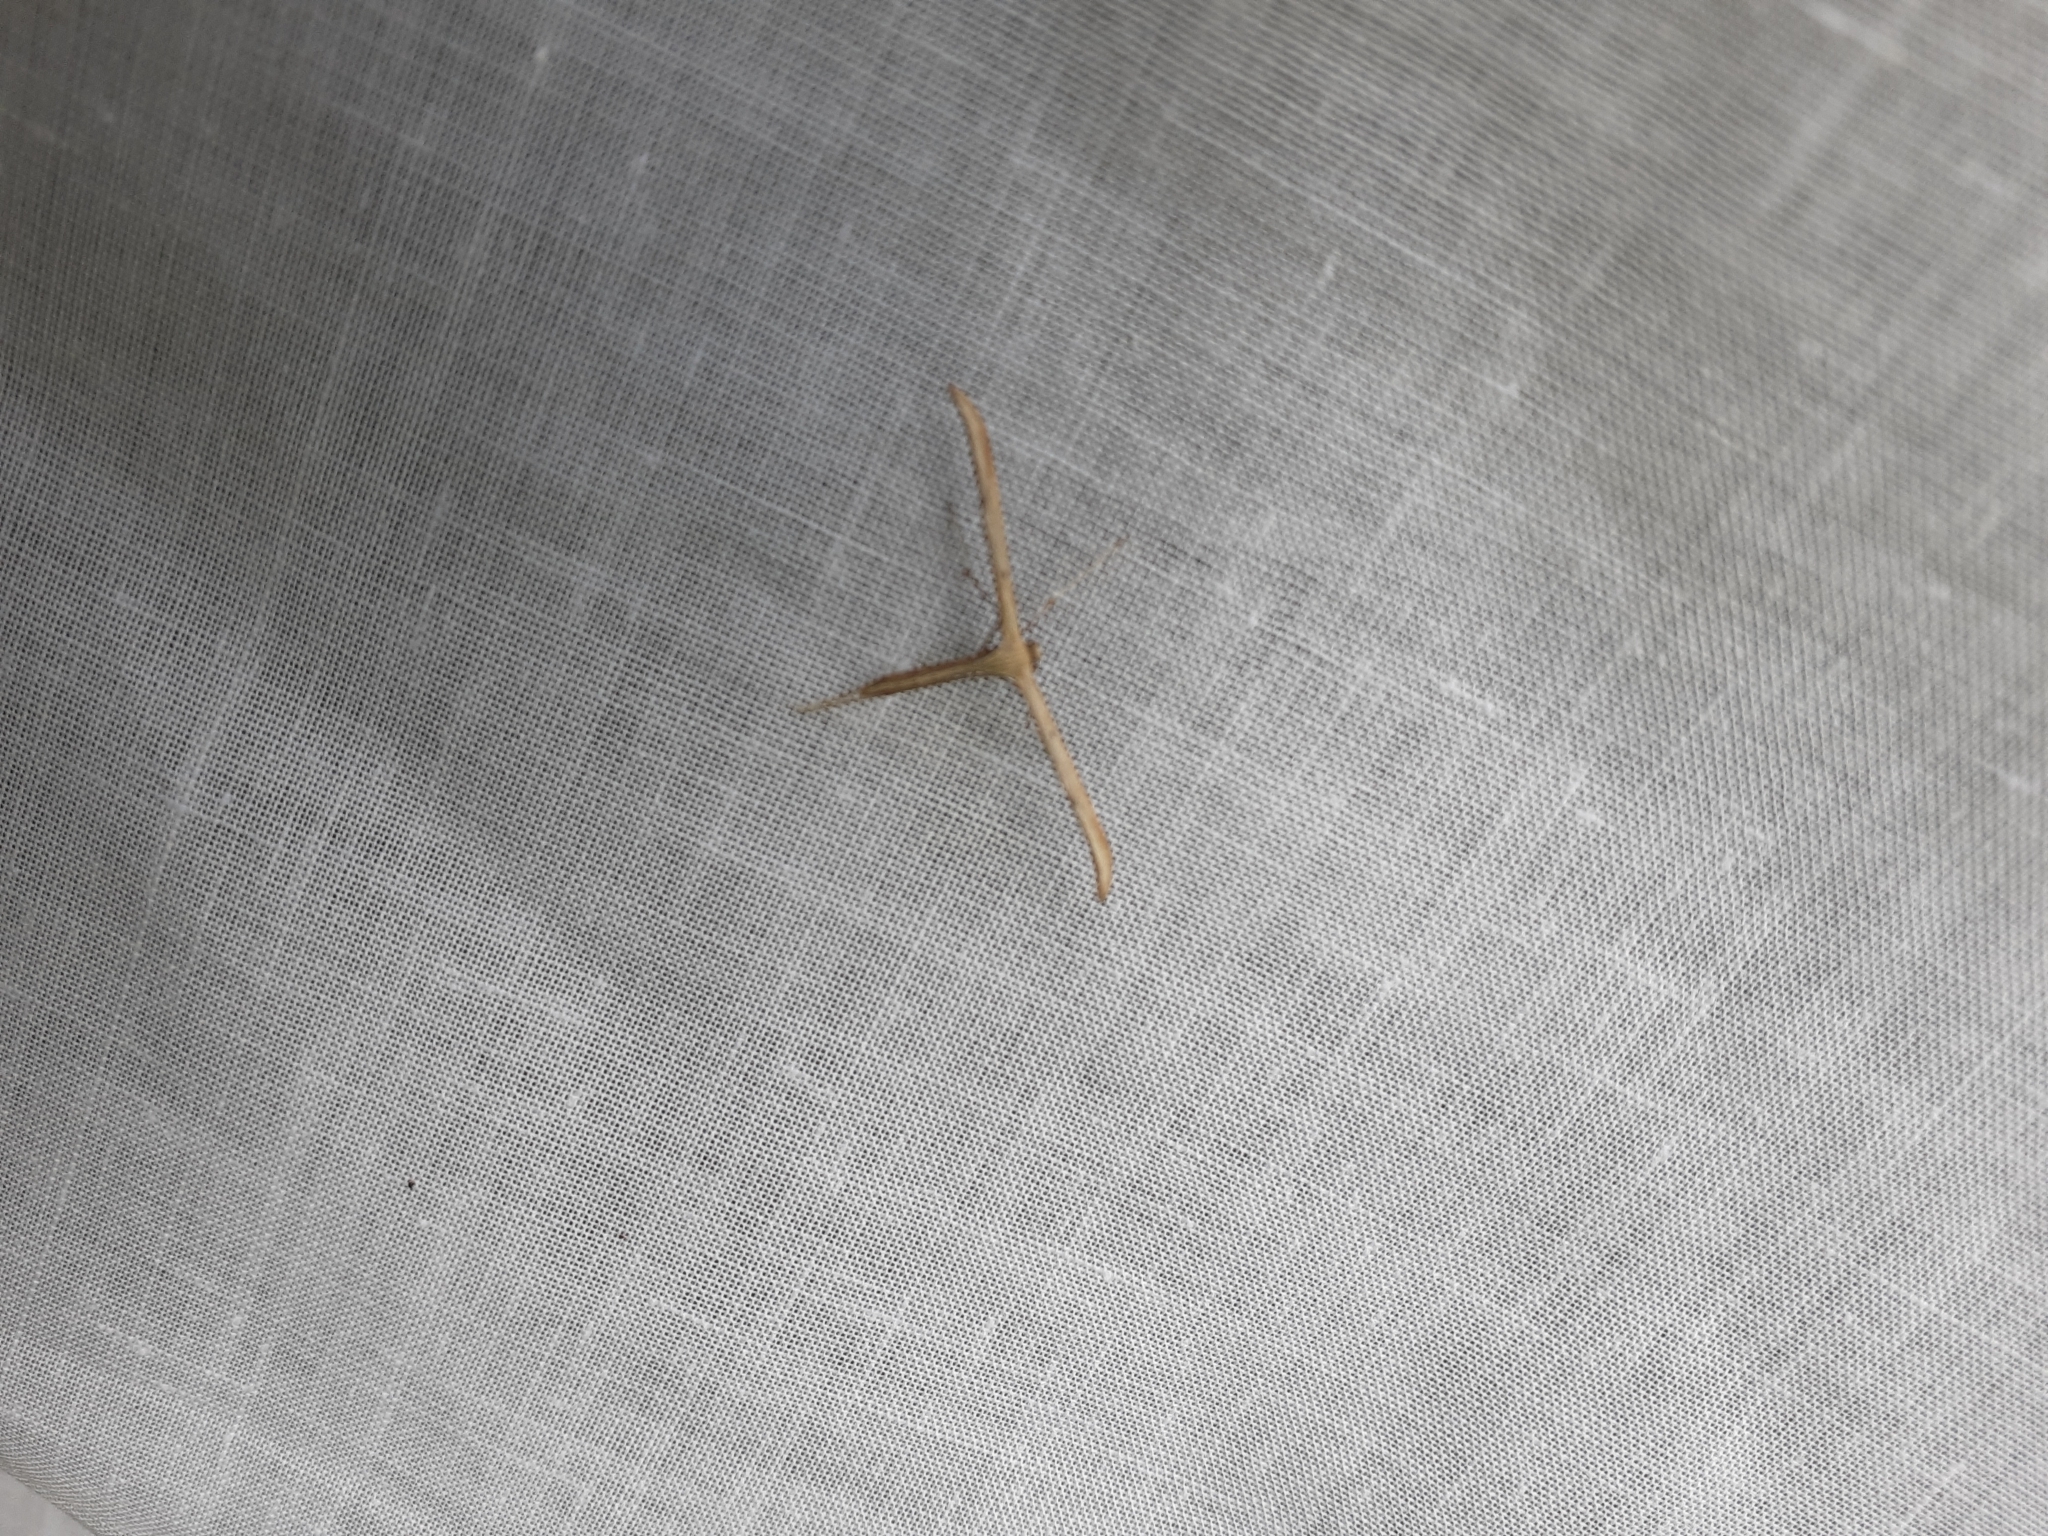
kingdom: Animalia
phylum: Arthropoda
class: Insecta
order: Lepidoptera
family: Pterophoridae
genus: Emmelina
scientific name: Emmelina monodactyla
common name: Common plume
